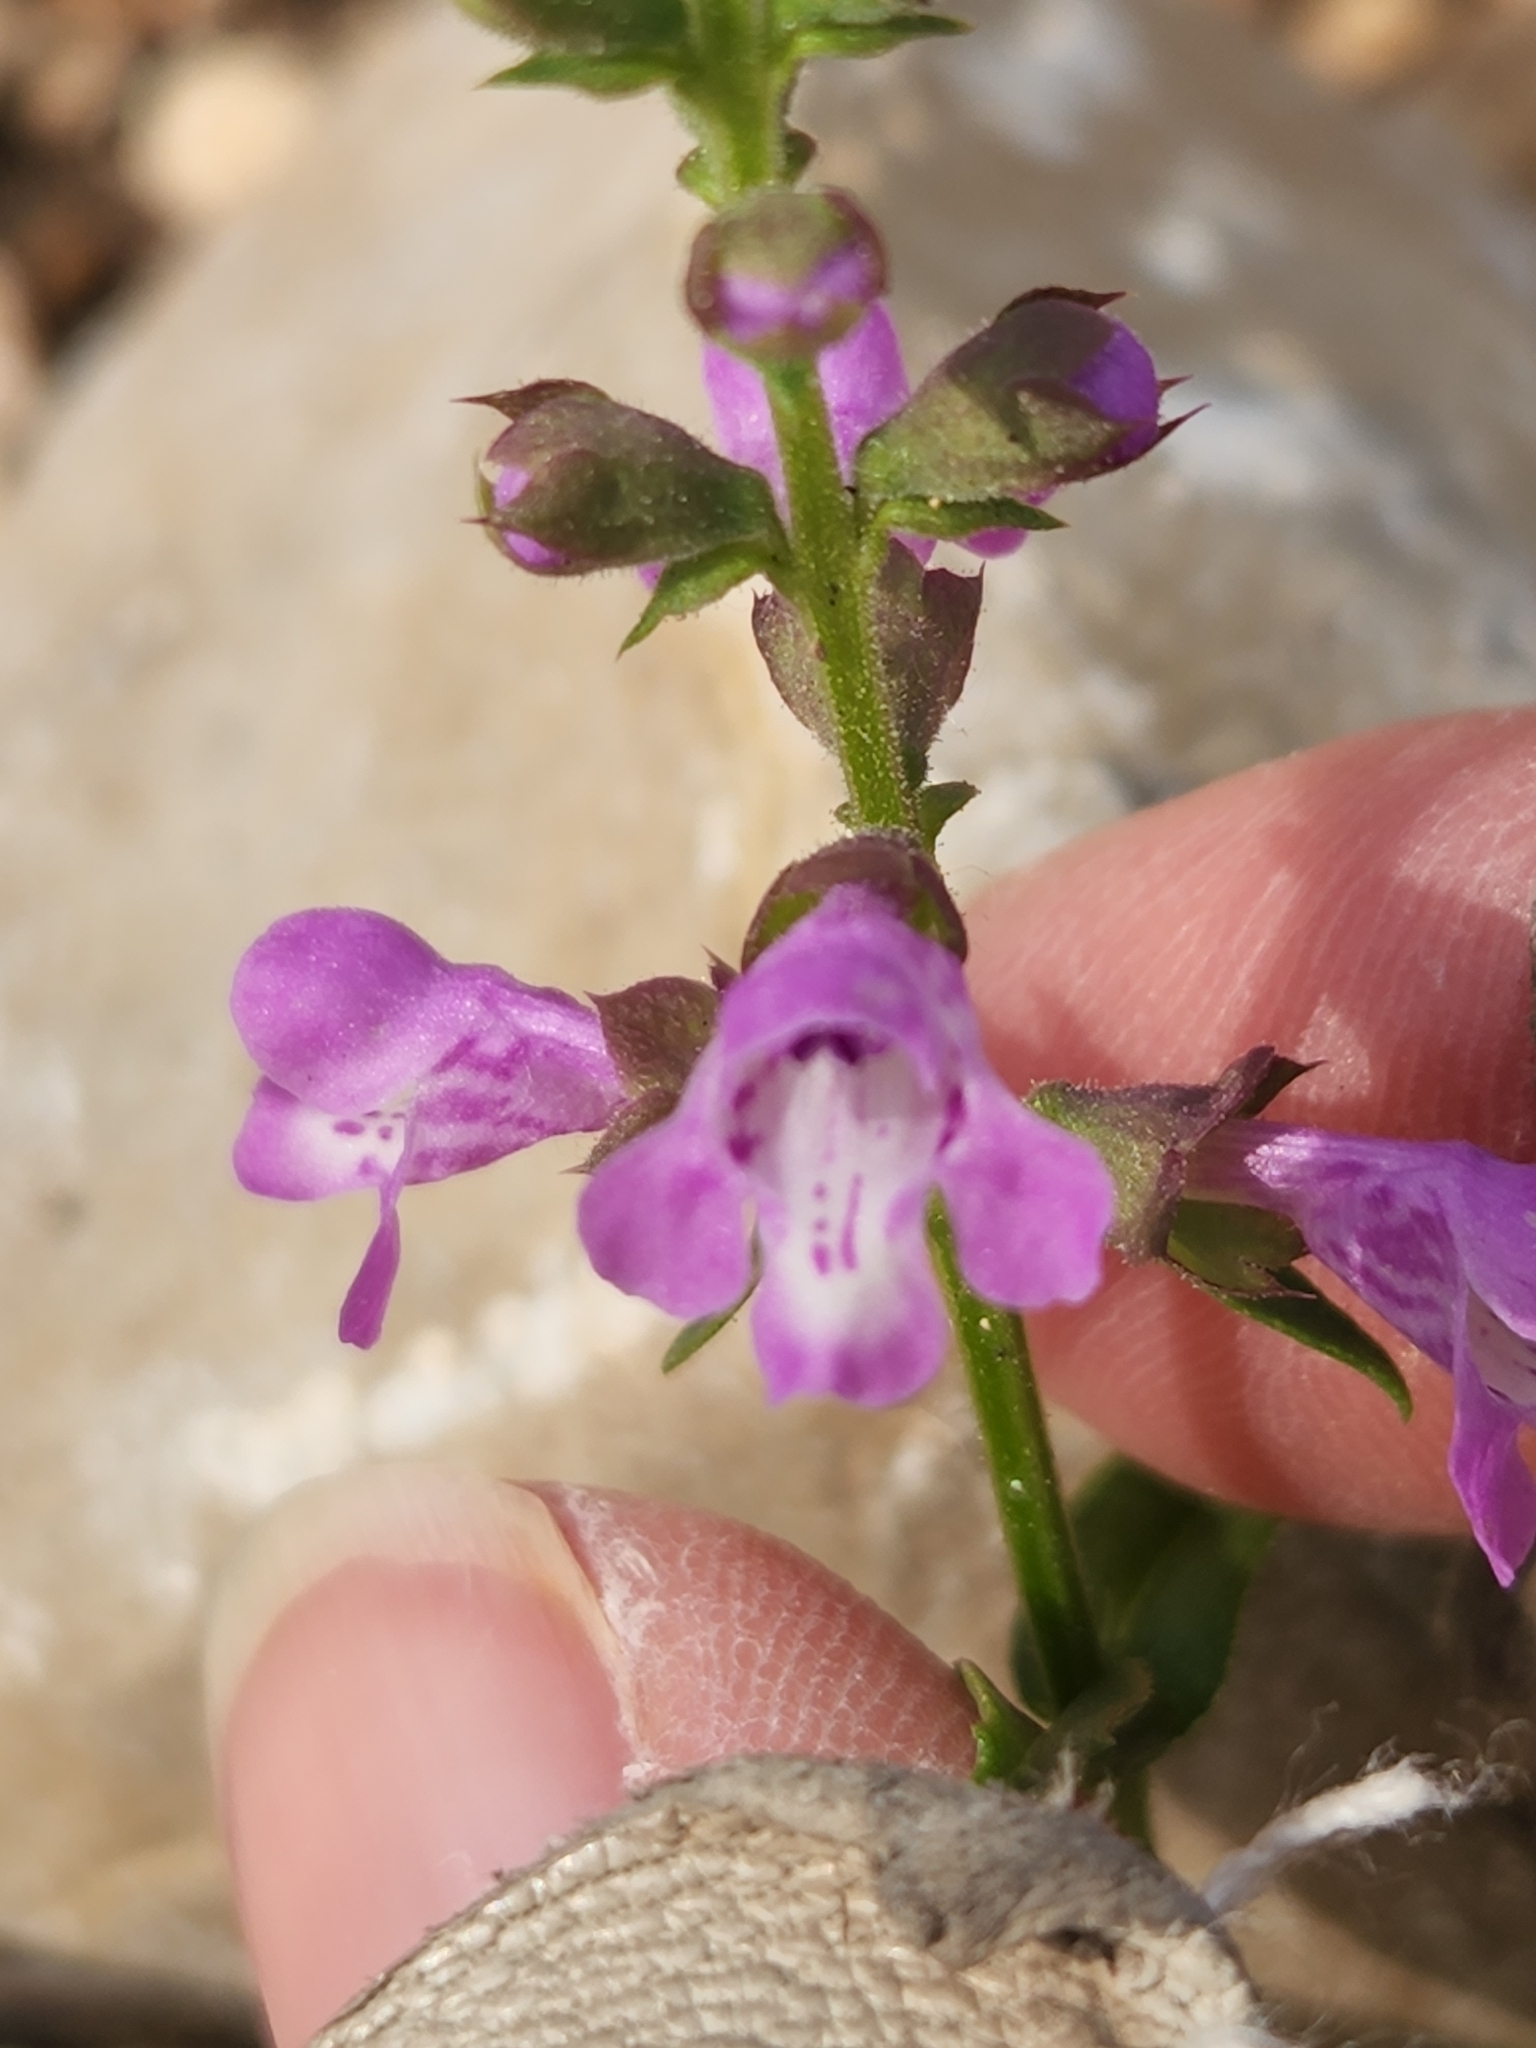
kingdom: Plantae
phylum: Tracheophyta
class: Magnoliopsida
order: Lamiales
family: Lamiaceae
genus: Warnockia
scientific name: Warnockia scutellarioides
